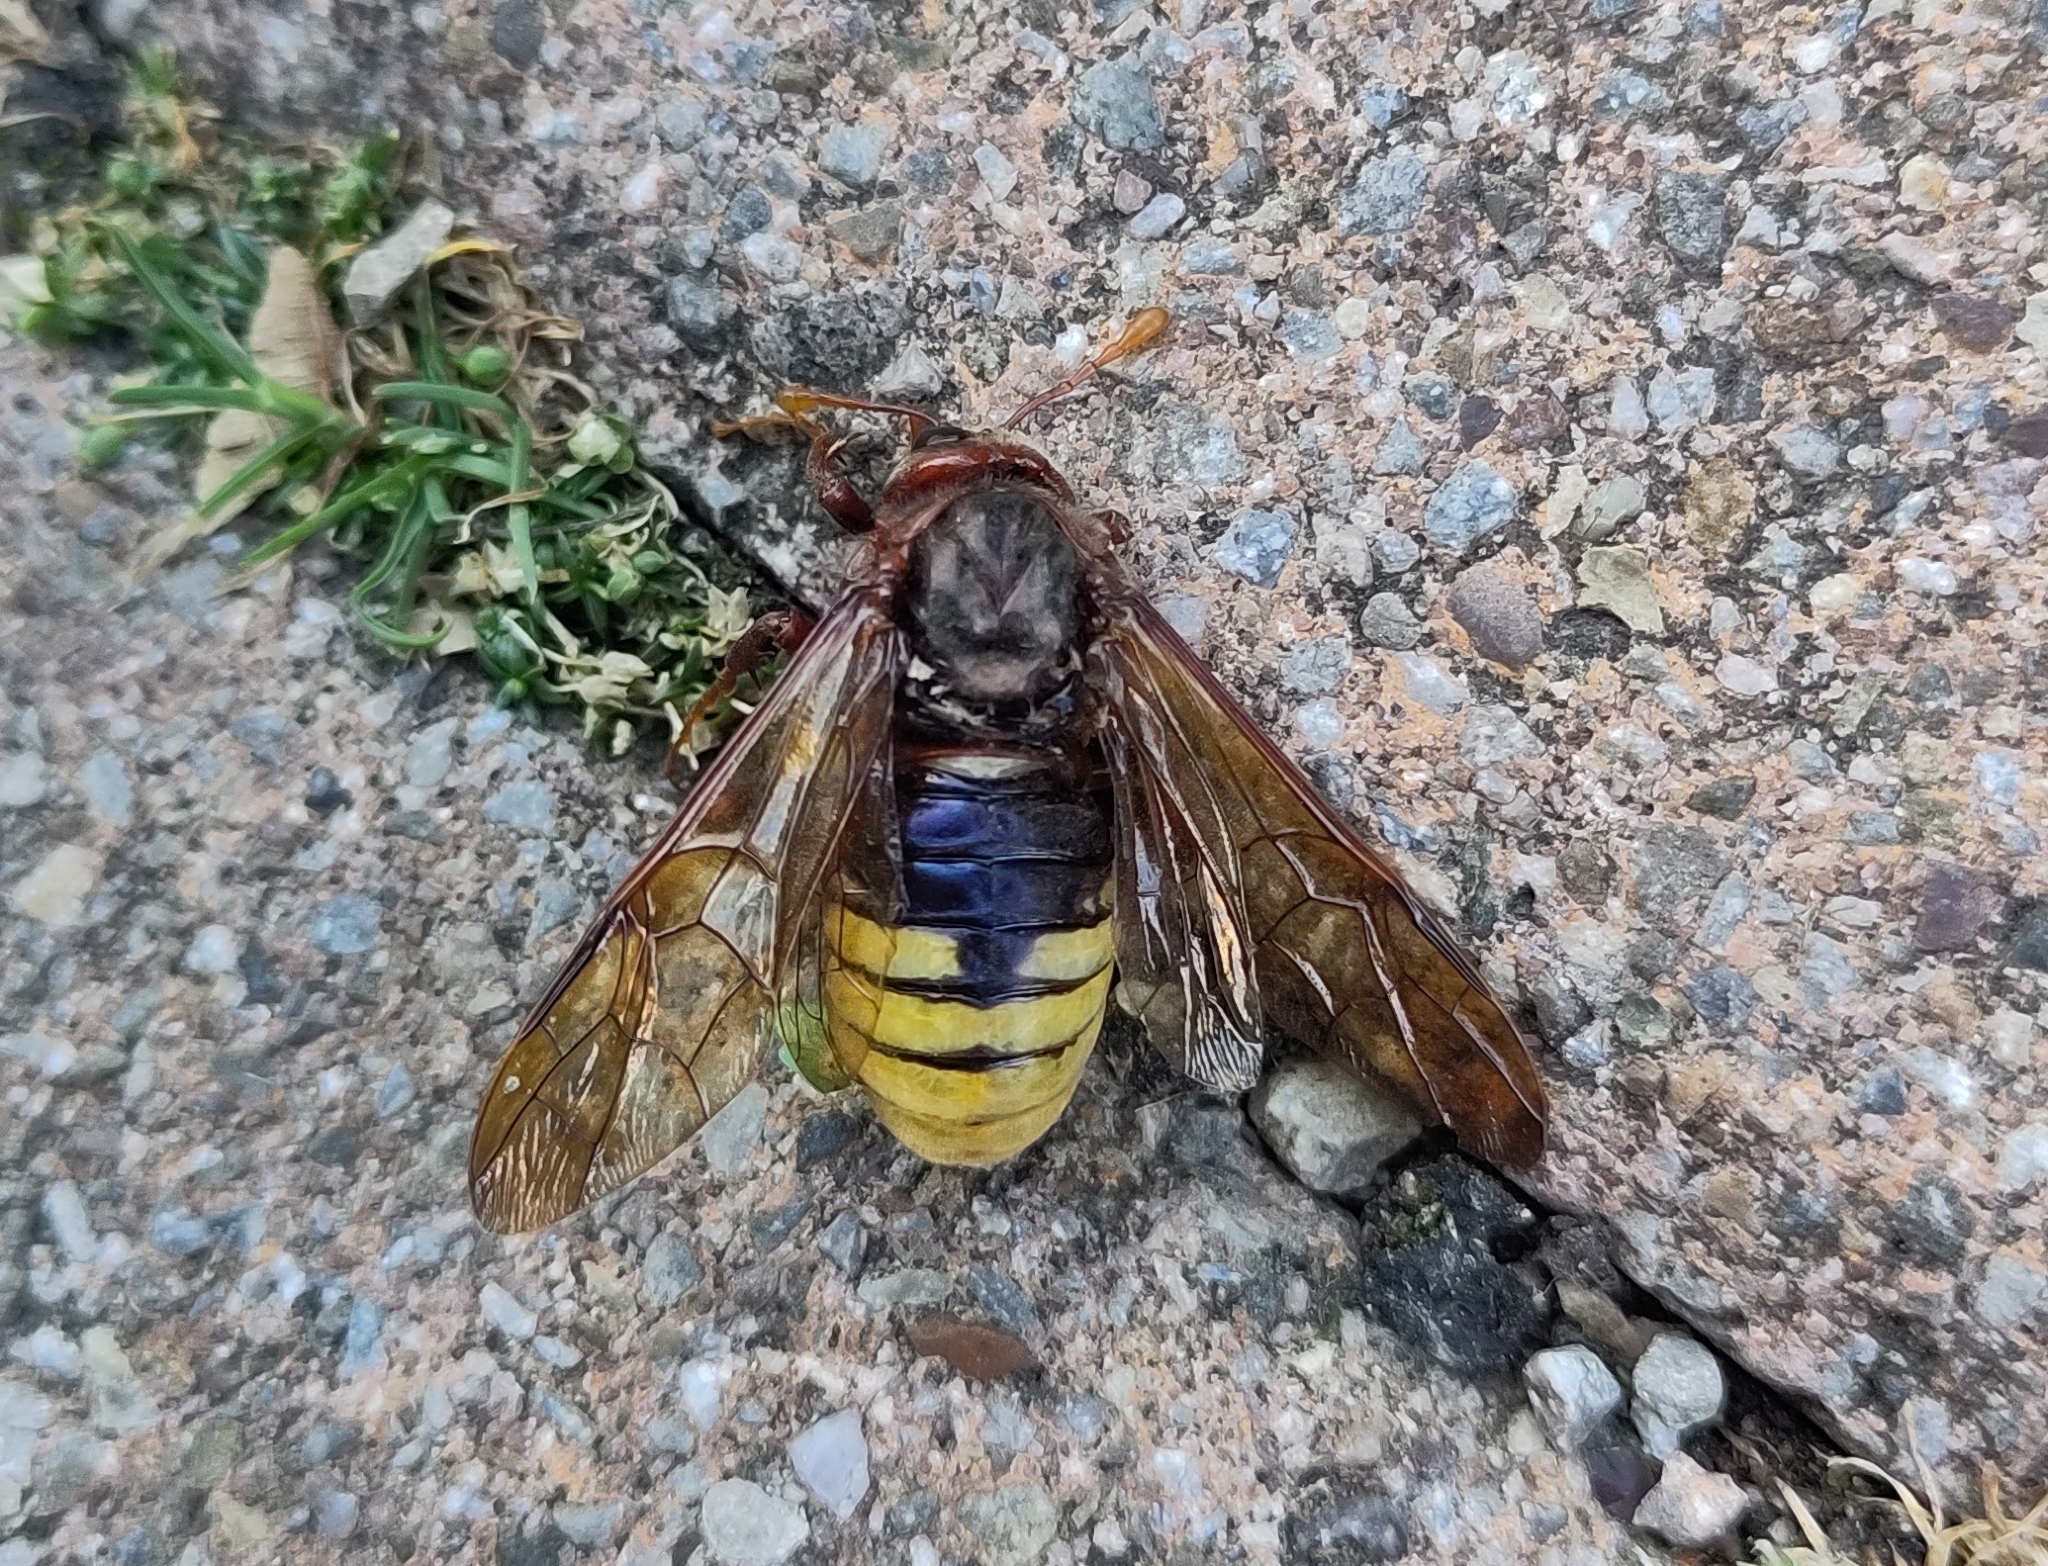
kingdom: Animalia
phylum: Arthropoda
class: Insecta
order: Hymenoptera
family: Cimbicidae
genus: Cimbex
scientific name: Cimbex connatus
